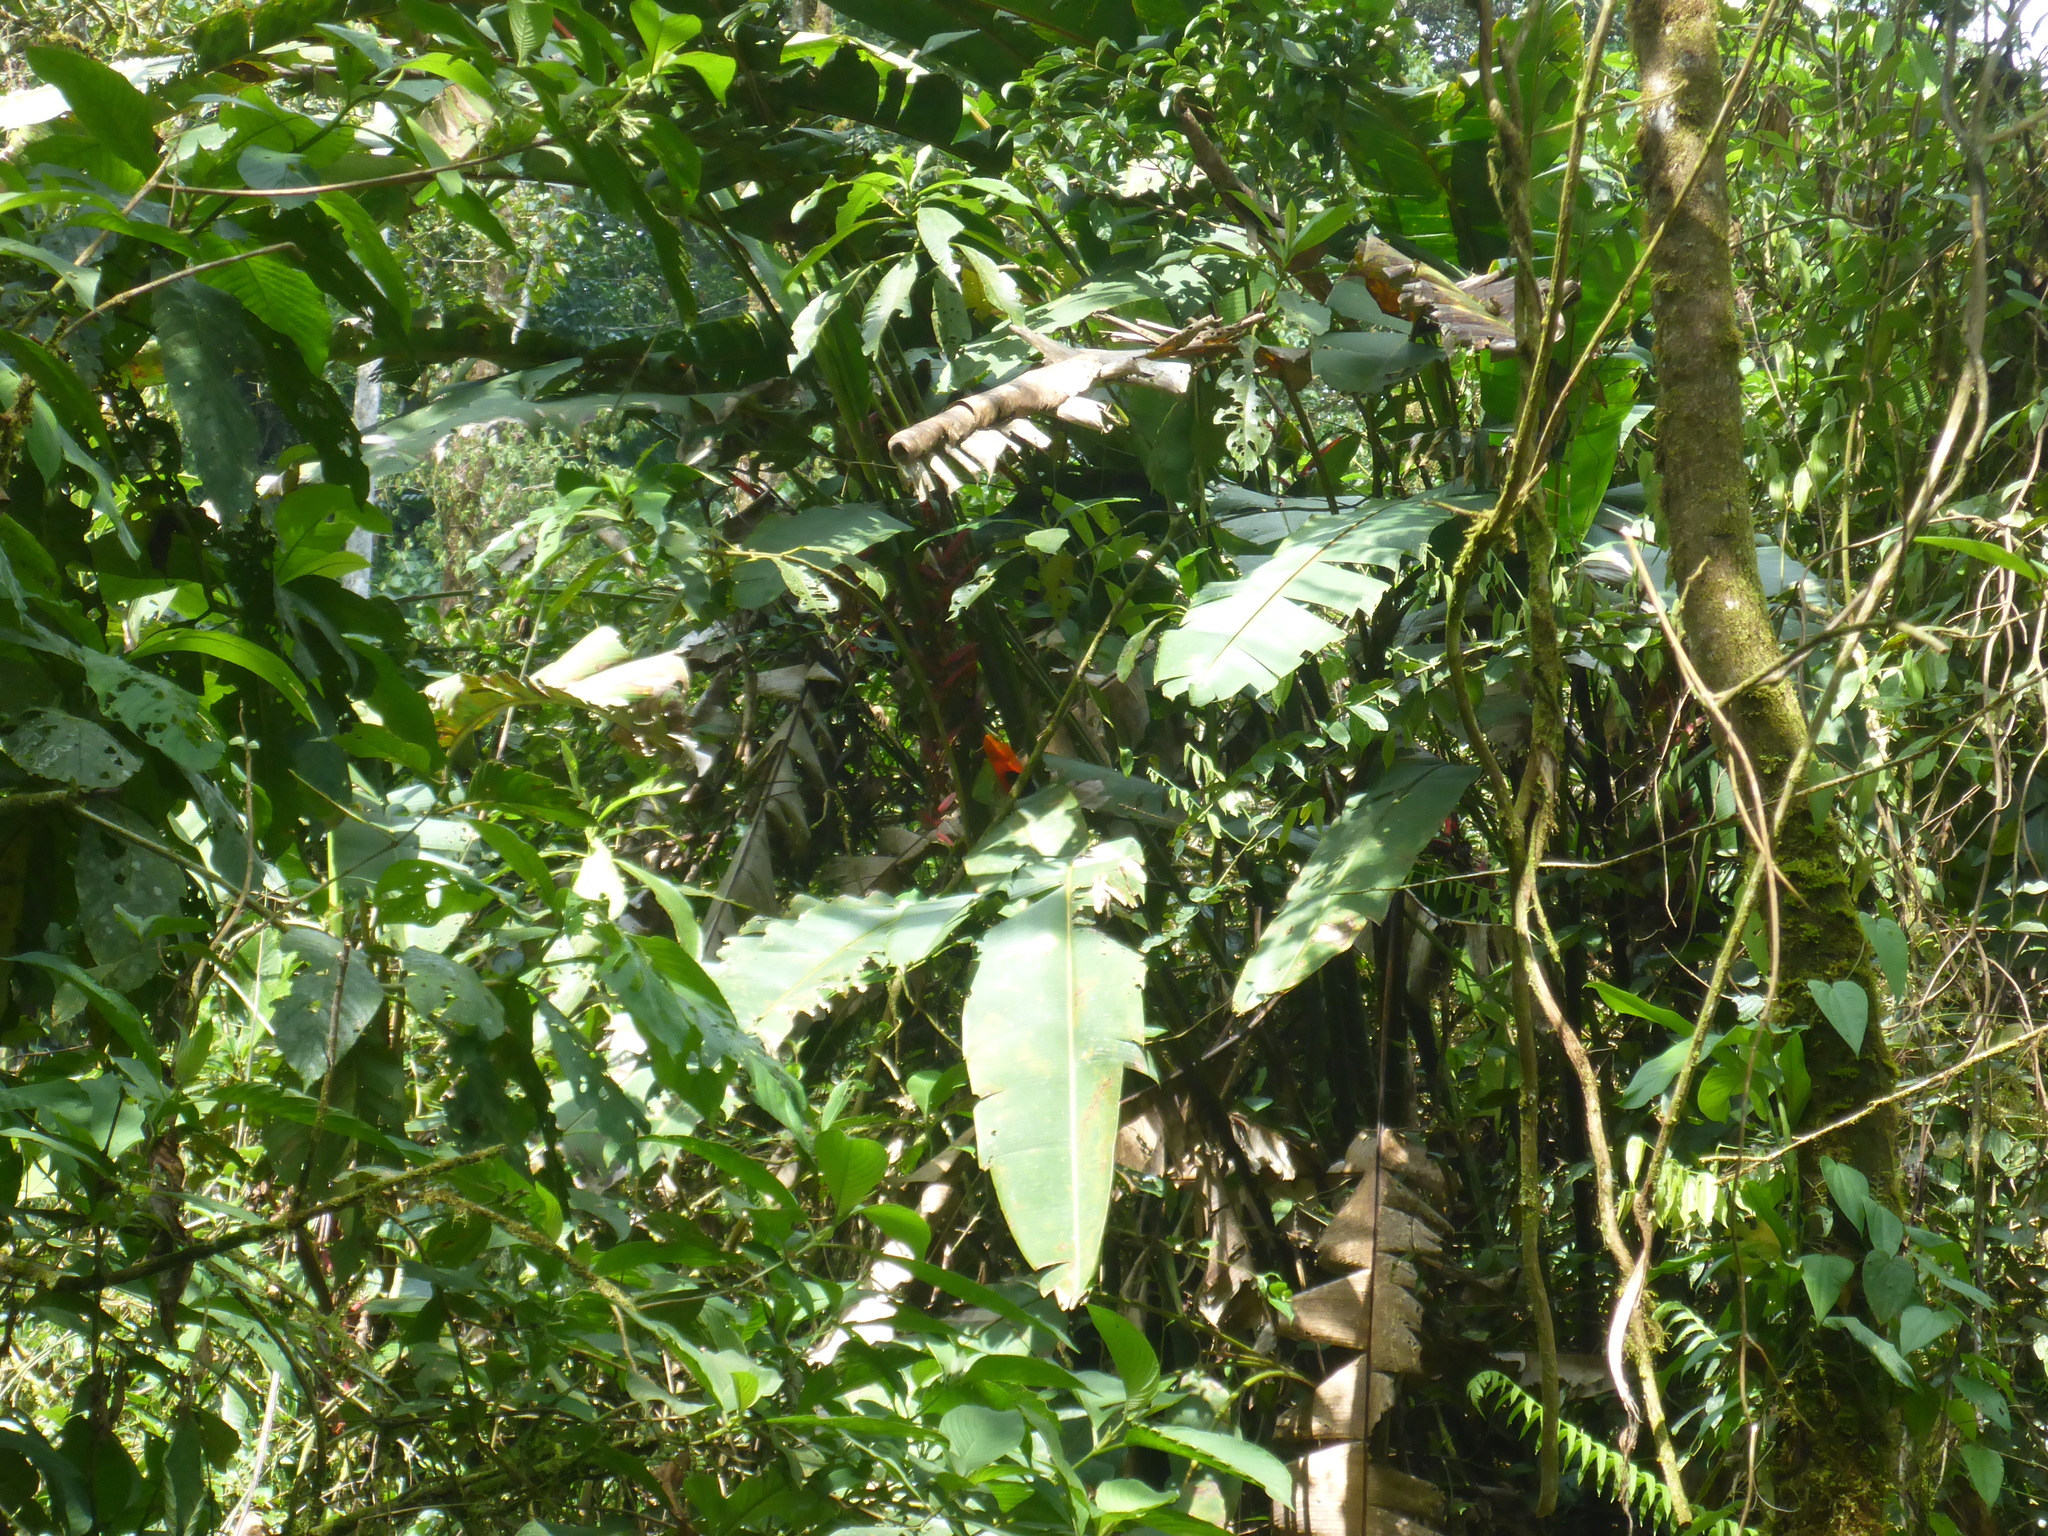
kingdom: Animalia
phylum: Chordata
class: Aves
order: Passeriformes
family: Cotingidae
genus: Rupicola
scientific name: Rupicola peruvianus
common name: Andean cock-of-the-rock
